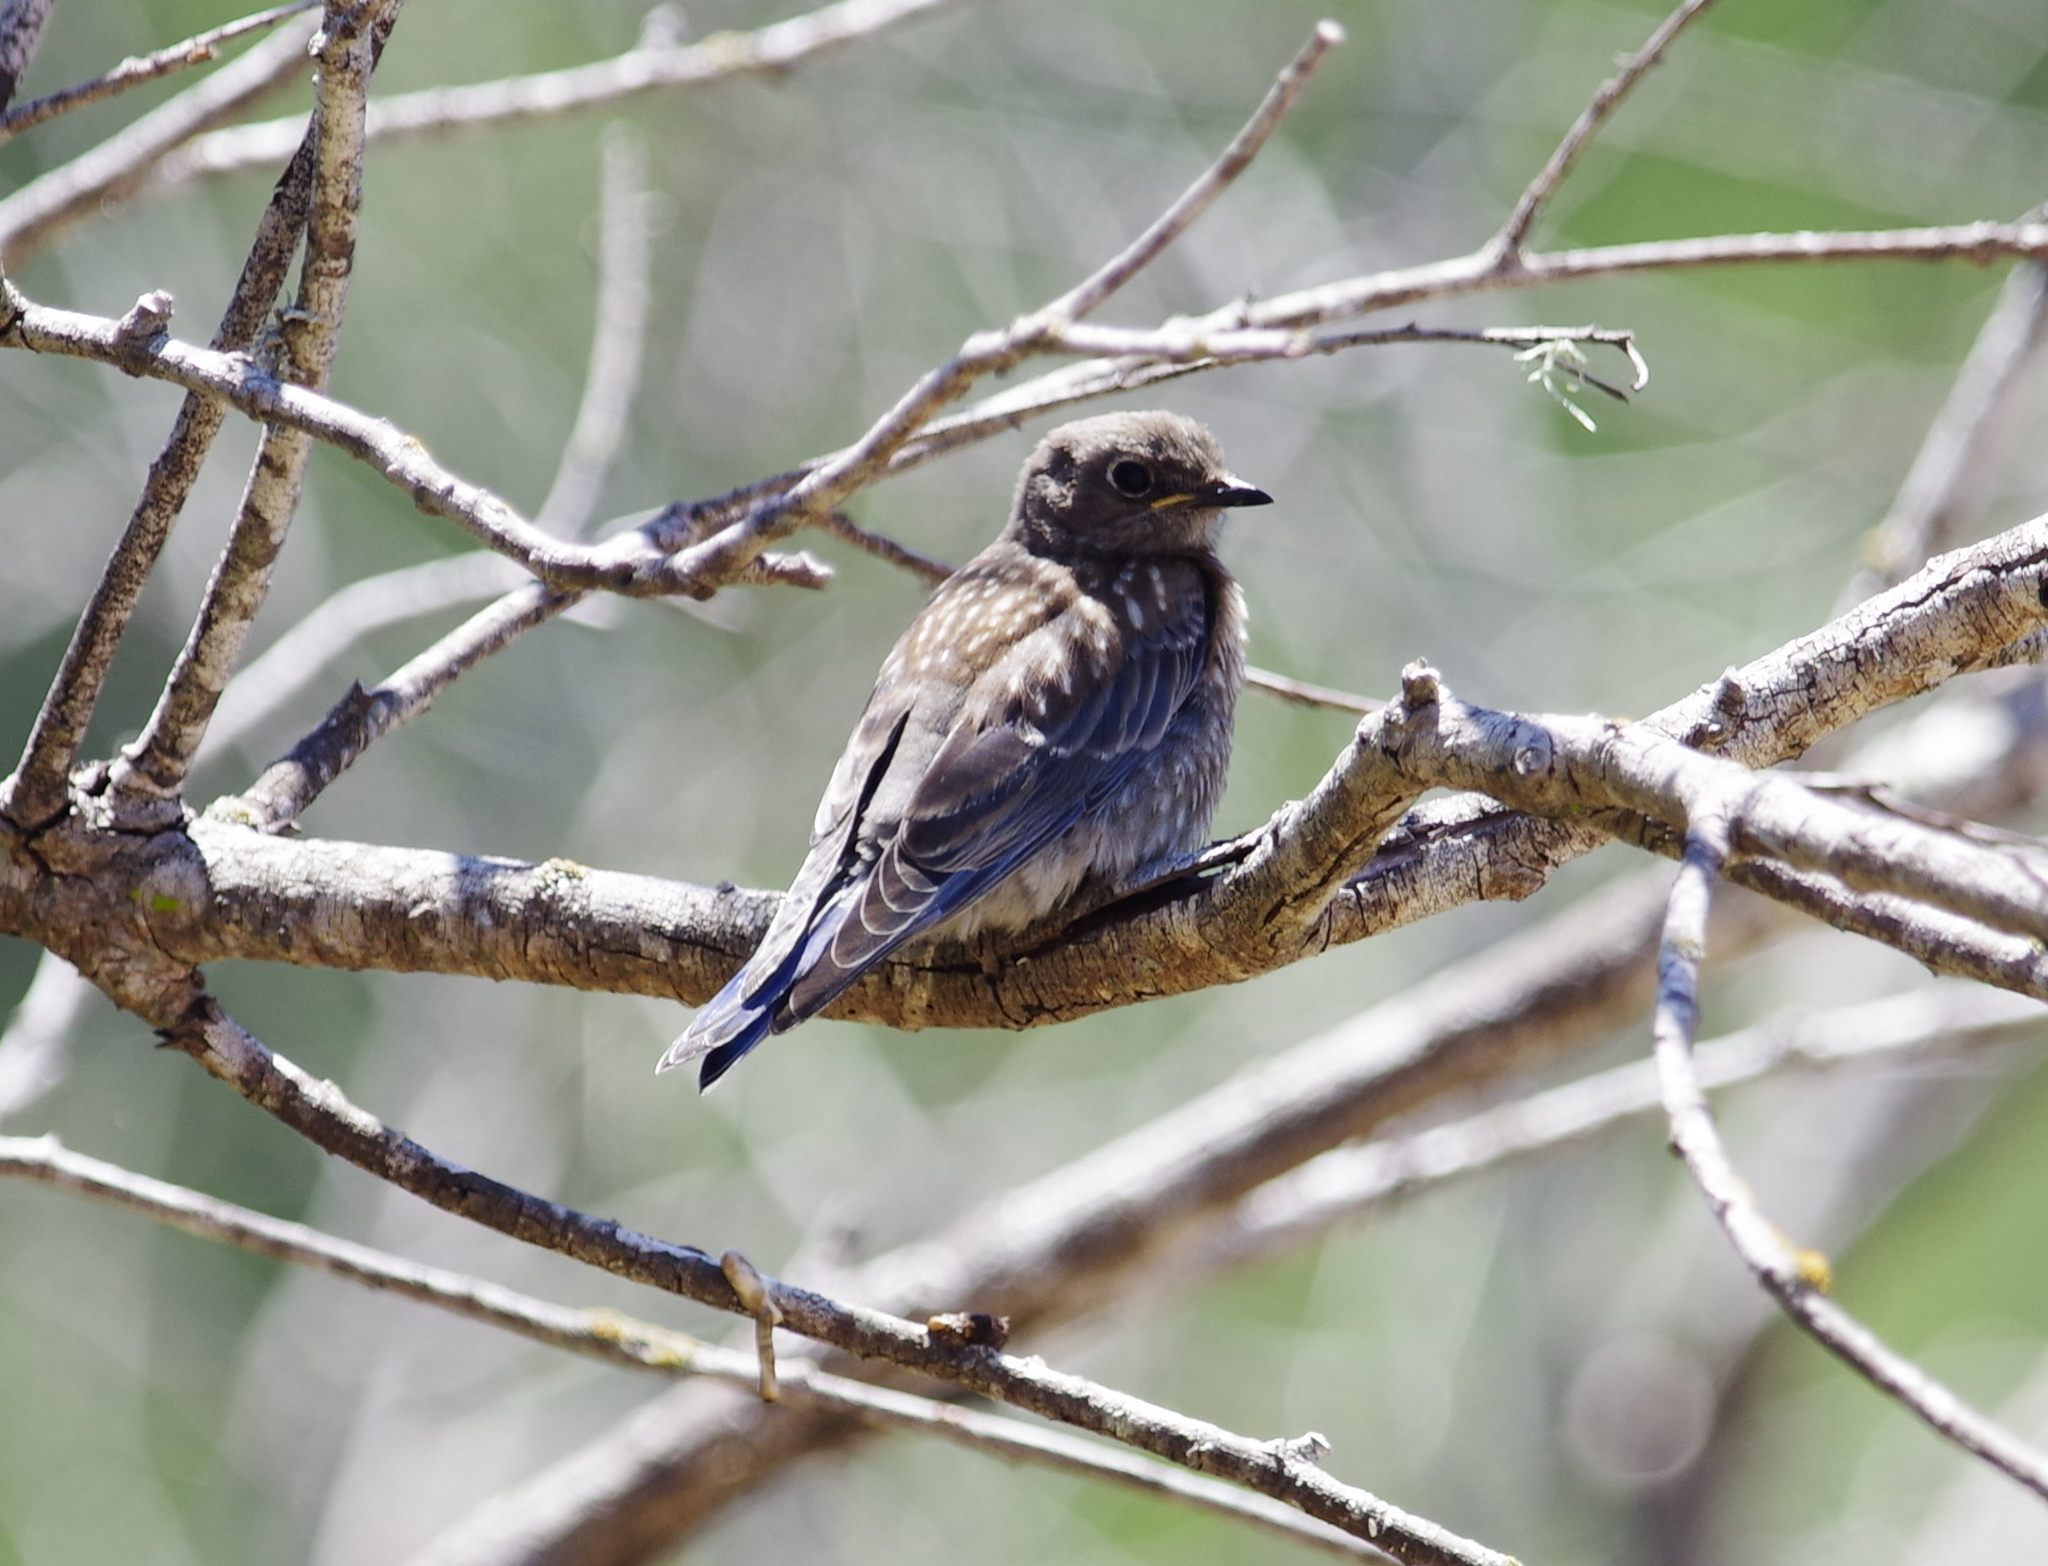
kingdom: Animalia
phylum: Chordata
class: Aves
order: Passeriformes
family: Turdidae
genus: Sialia
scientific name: Sialia mexicana
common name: Western bluebird
